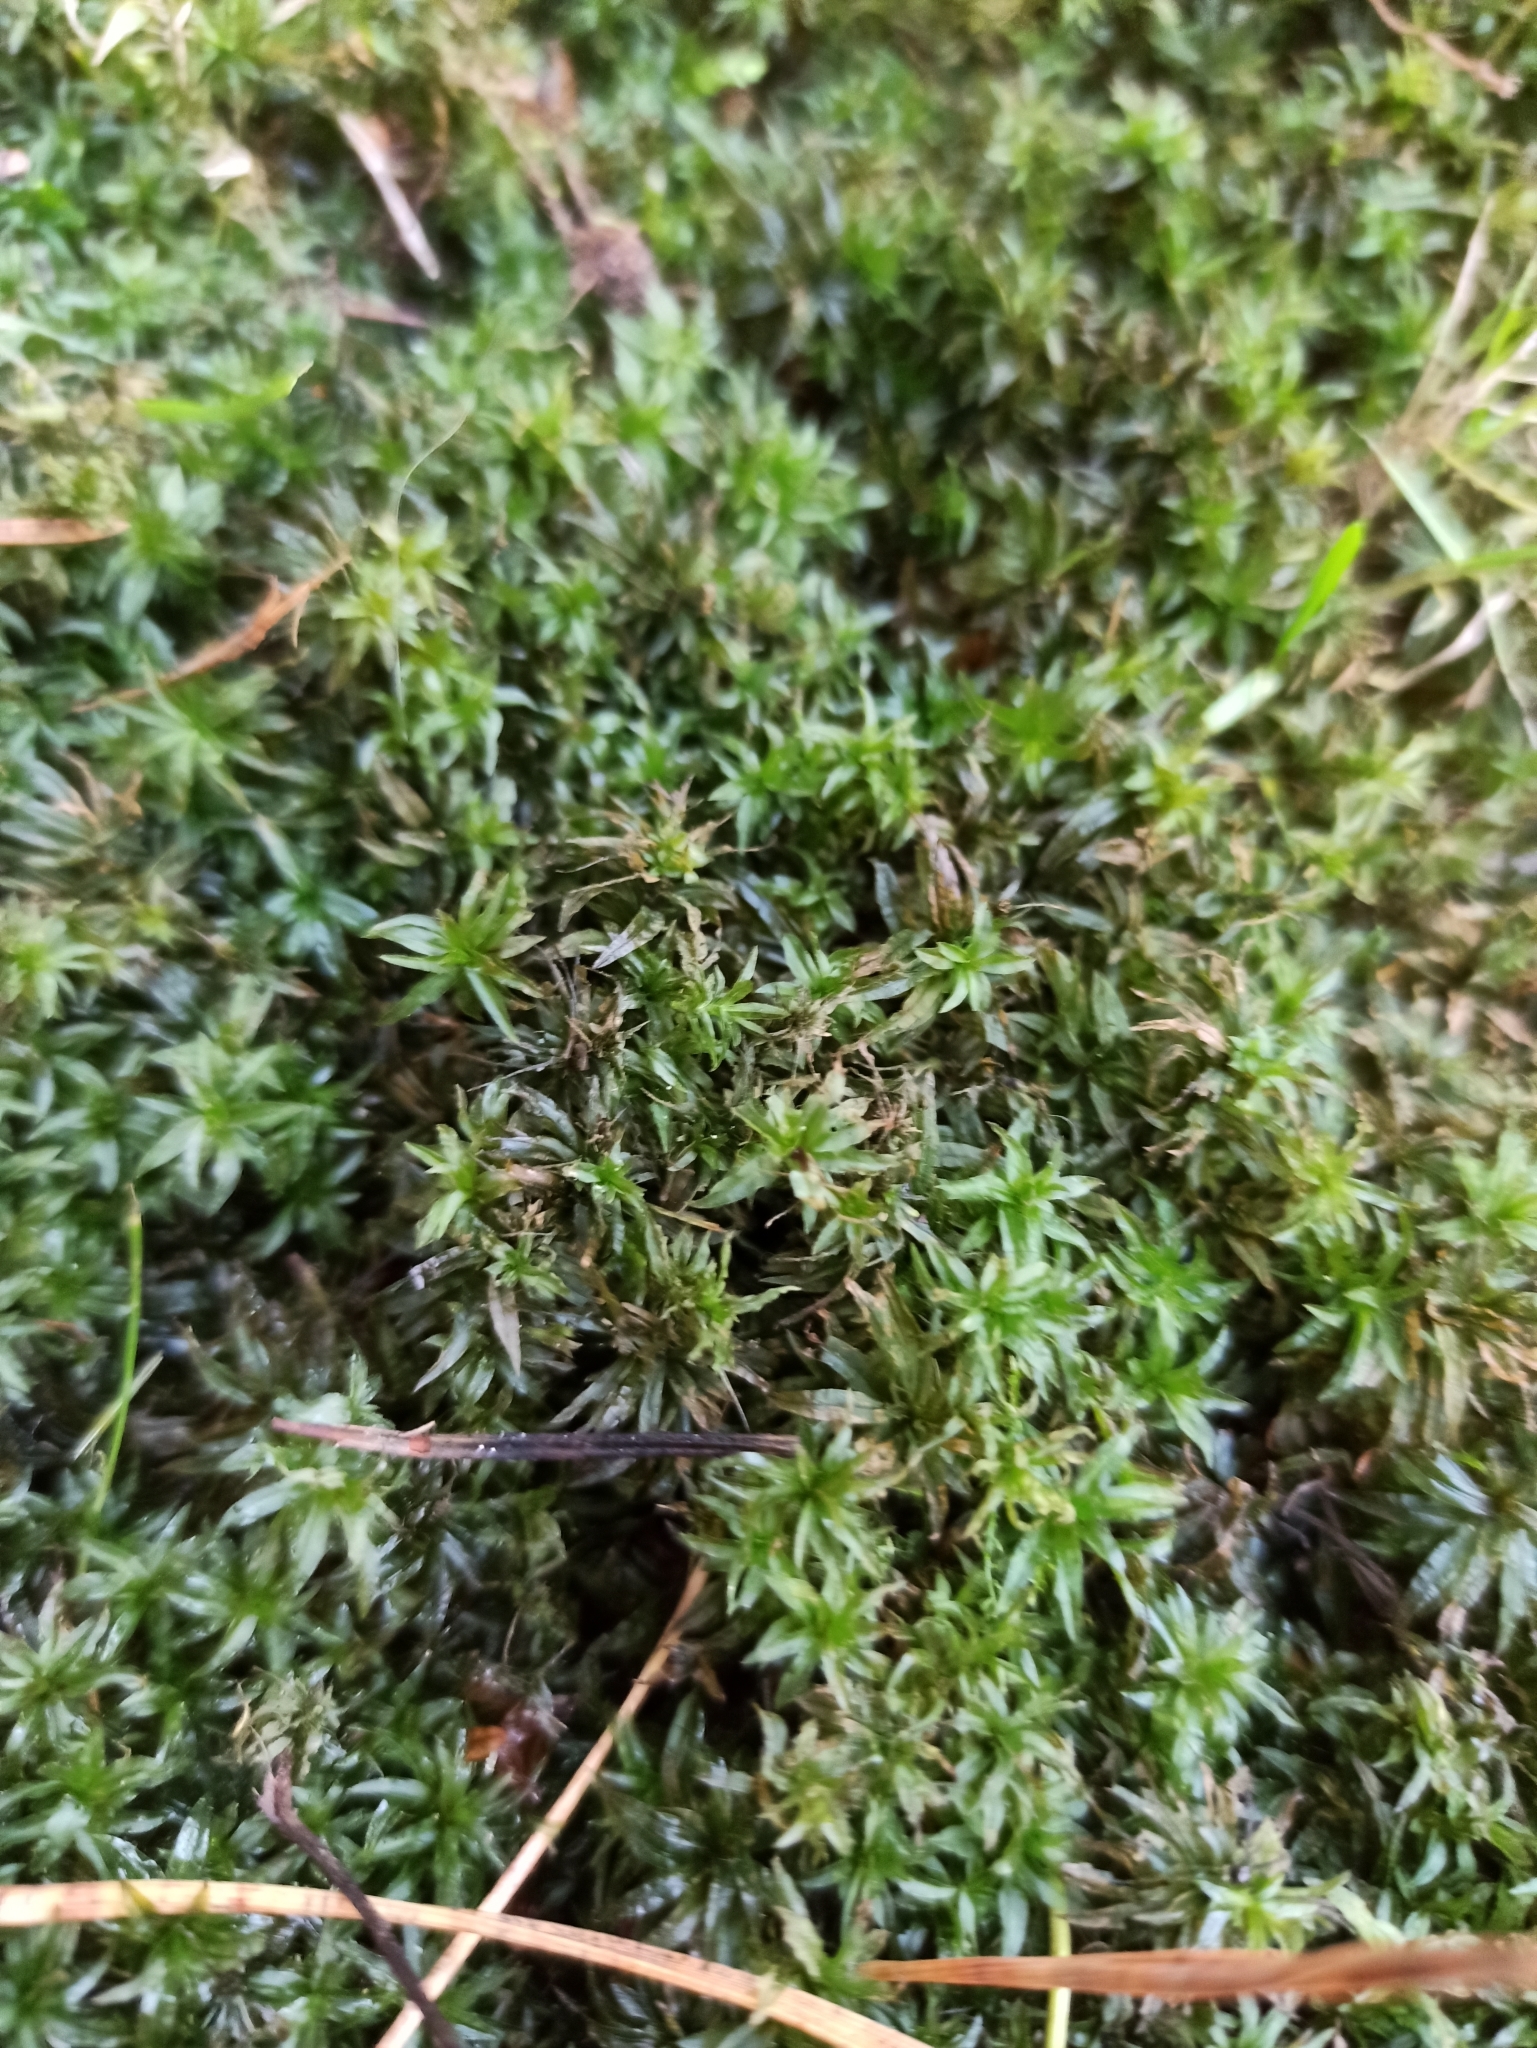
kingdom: Plantae
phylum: Bryophyta
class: Polytrichopsida
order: Polytrichales
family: Polytrichaceae
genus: Atrichum
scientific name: Atrichum undulatum
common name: Common smoothcap
